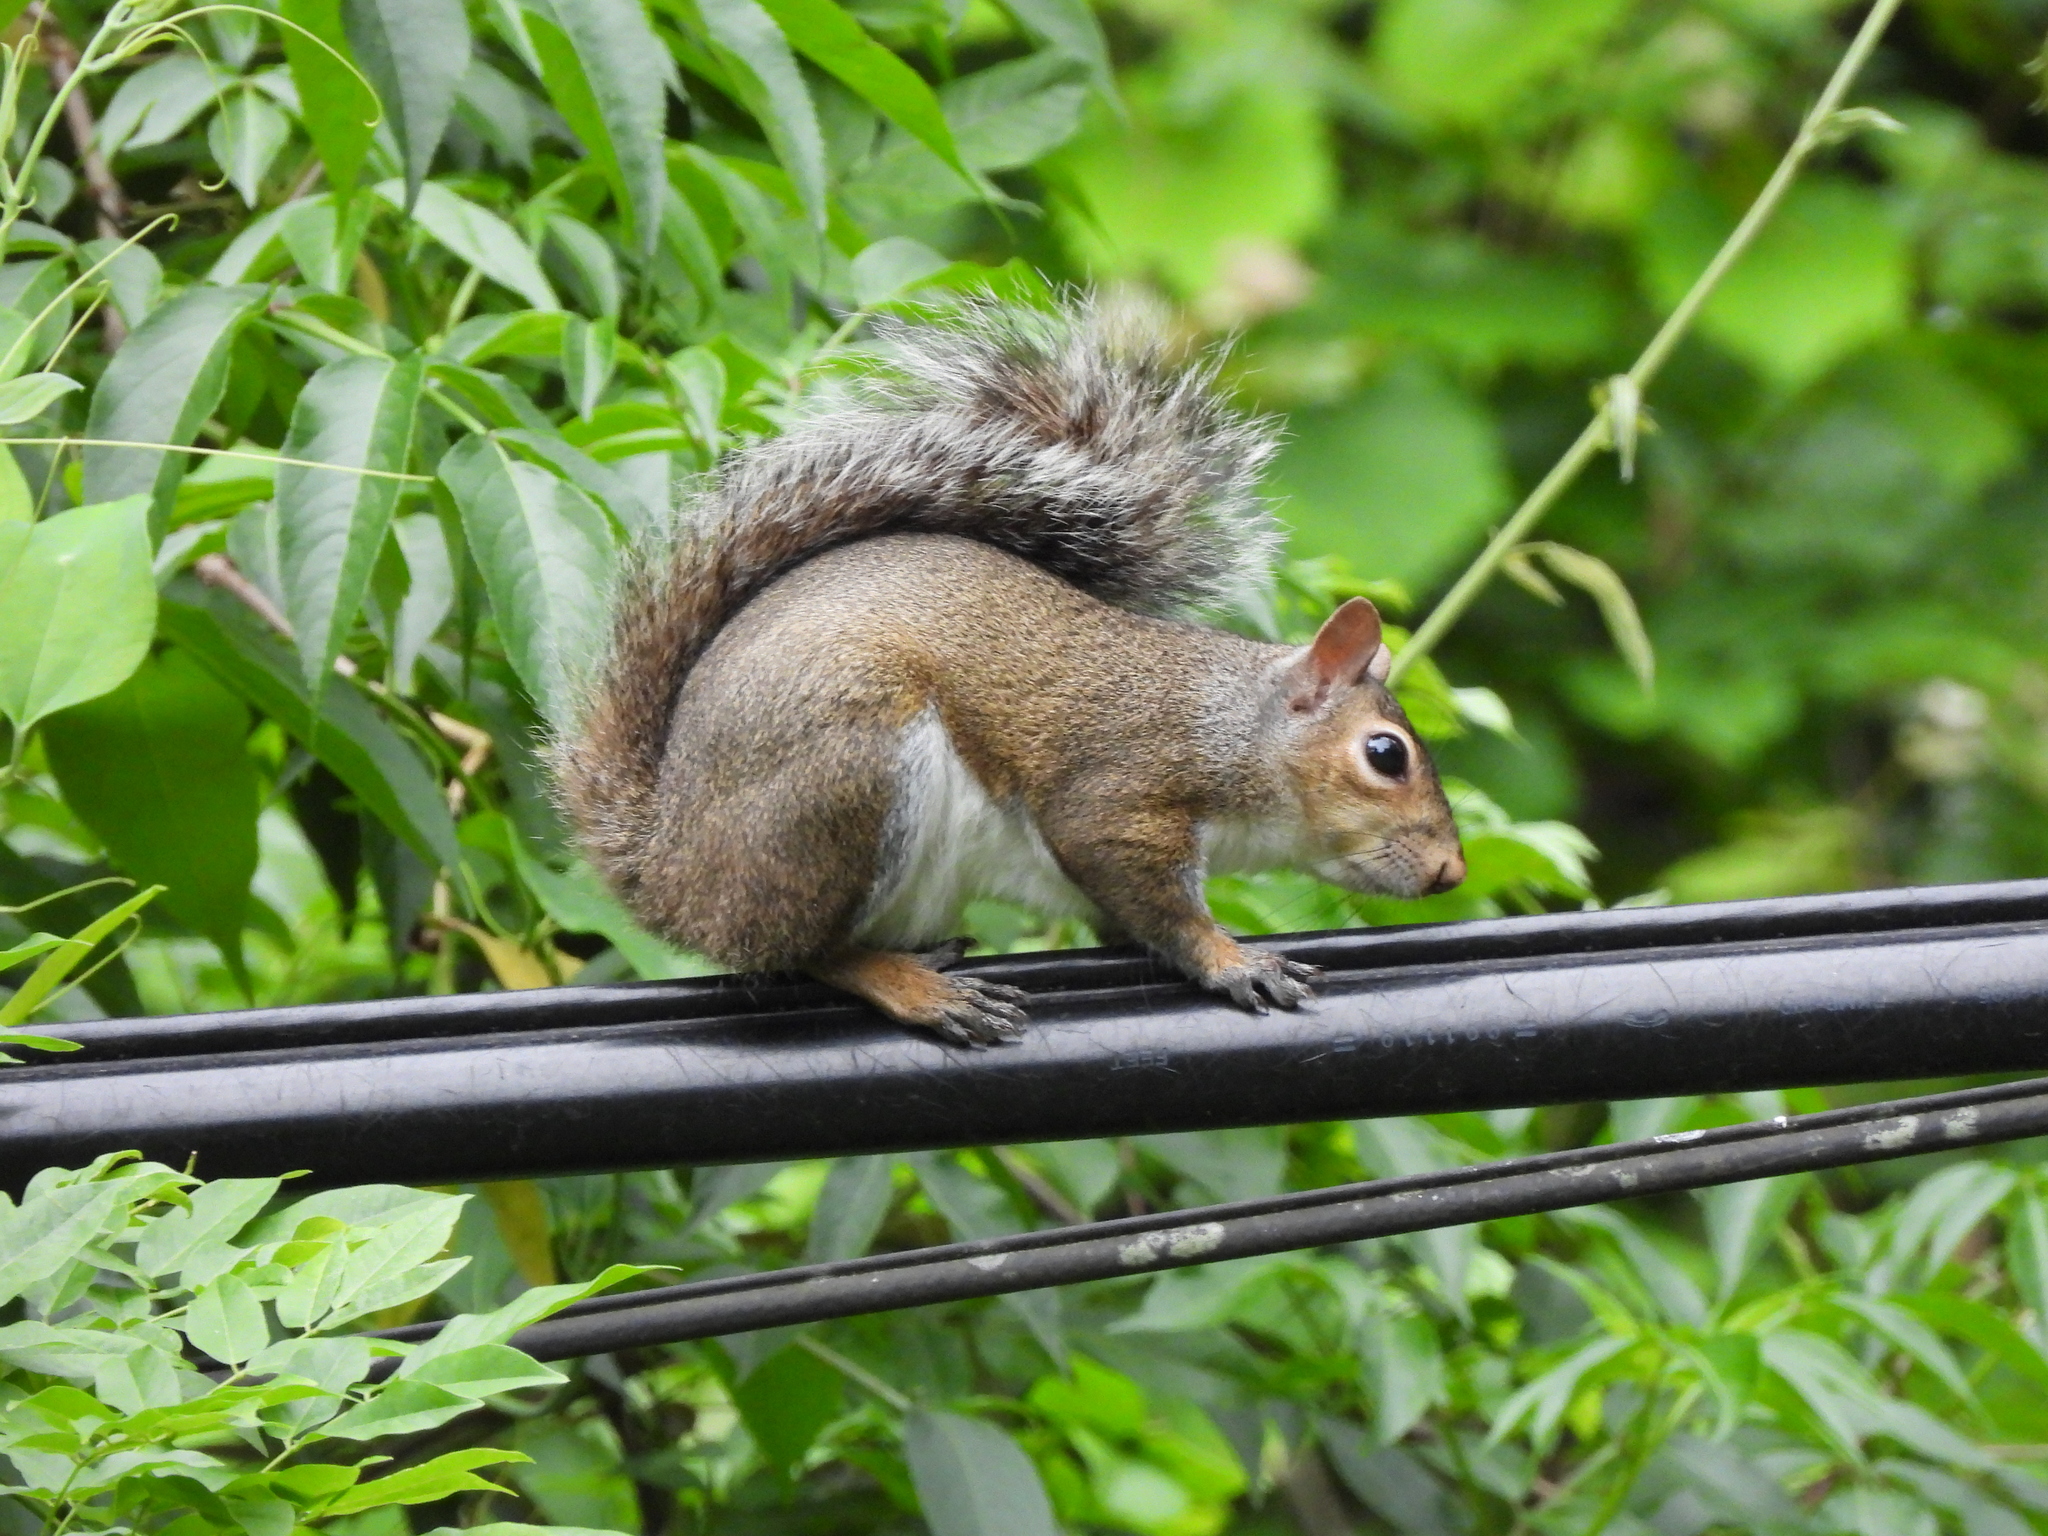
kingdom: Animalia
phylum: Chordata
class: Mammalia
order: Rodentia
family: Sciuridae
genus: Sciurus
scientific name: Sciurus carolinensis
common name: Eastern gray squirrel
